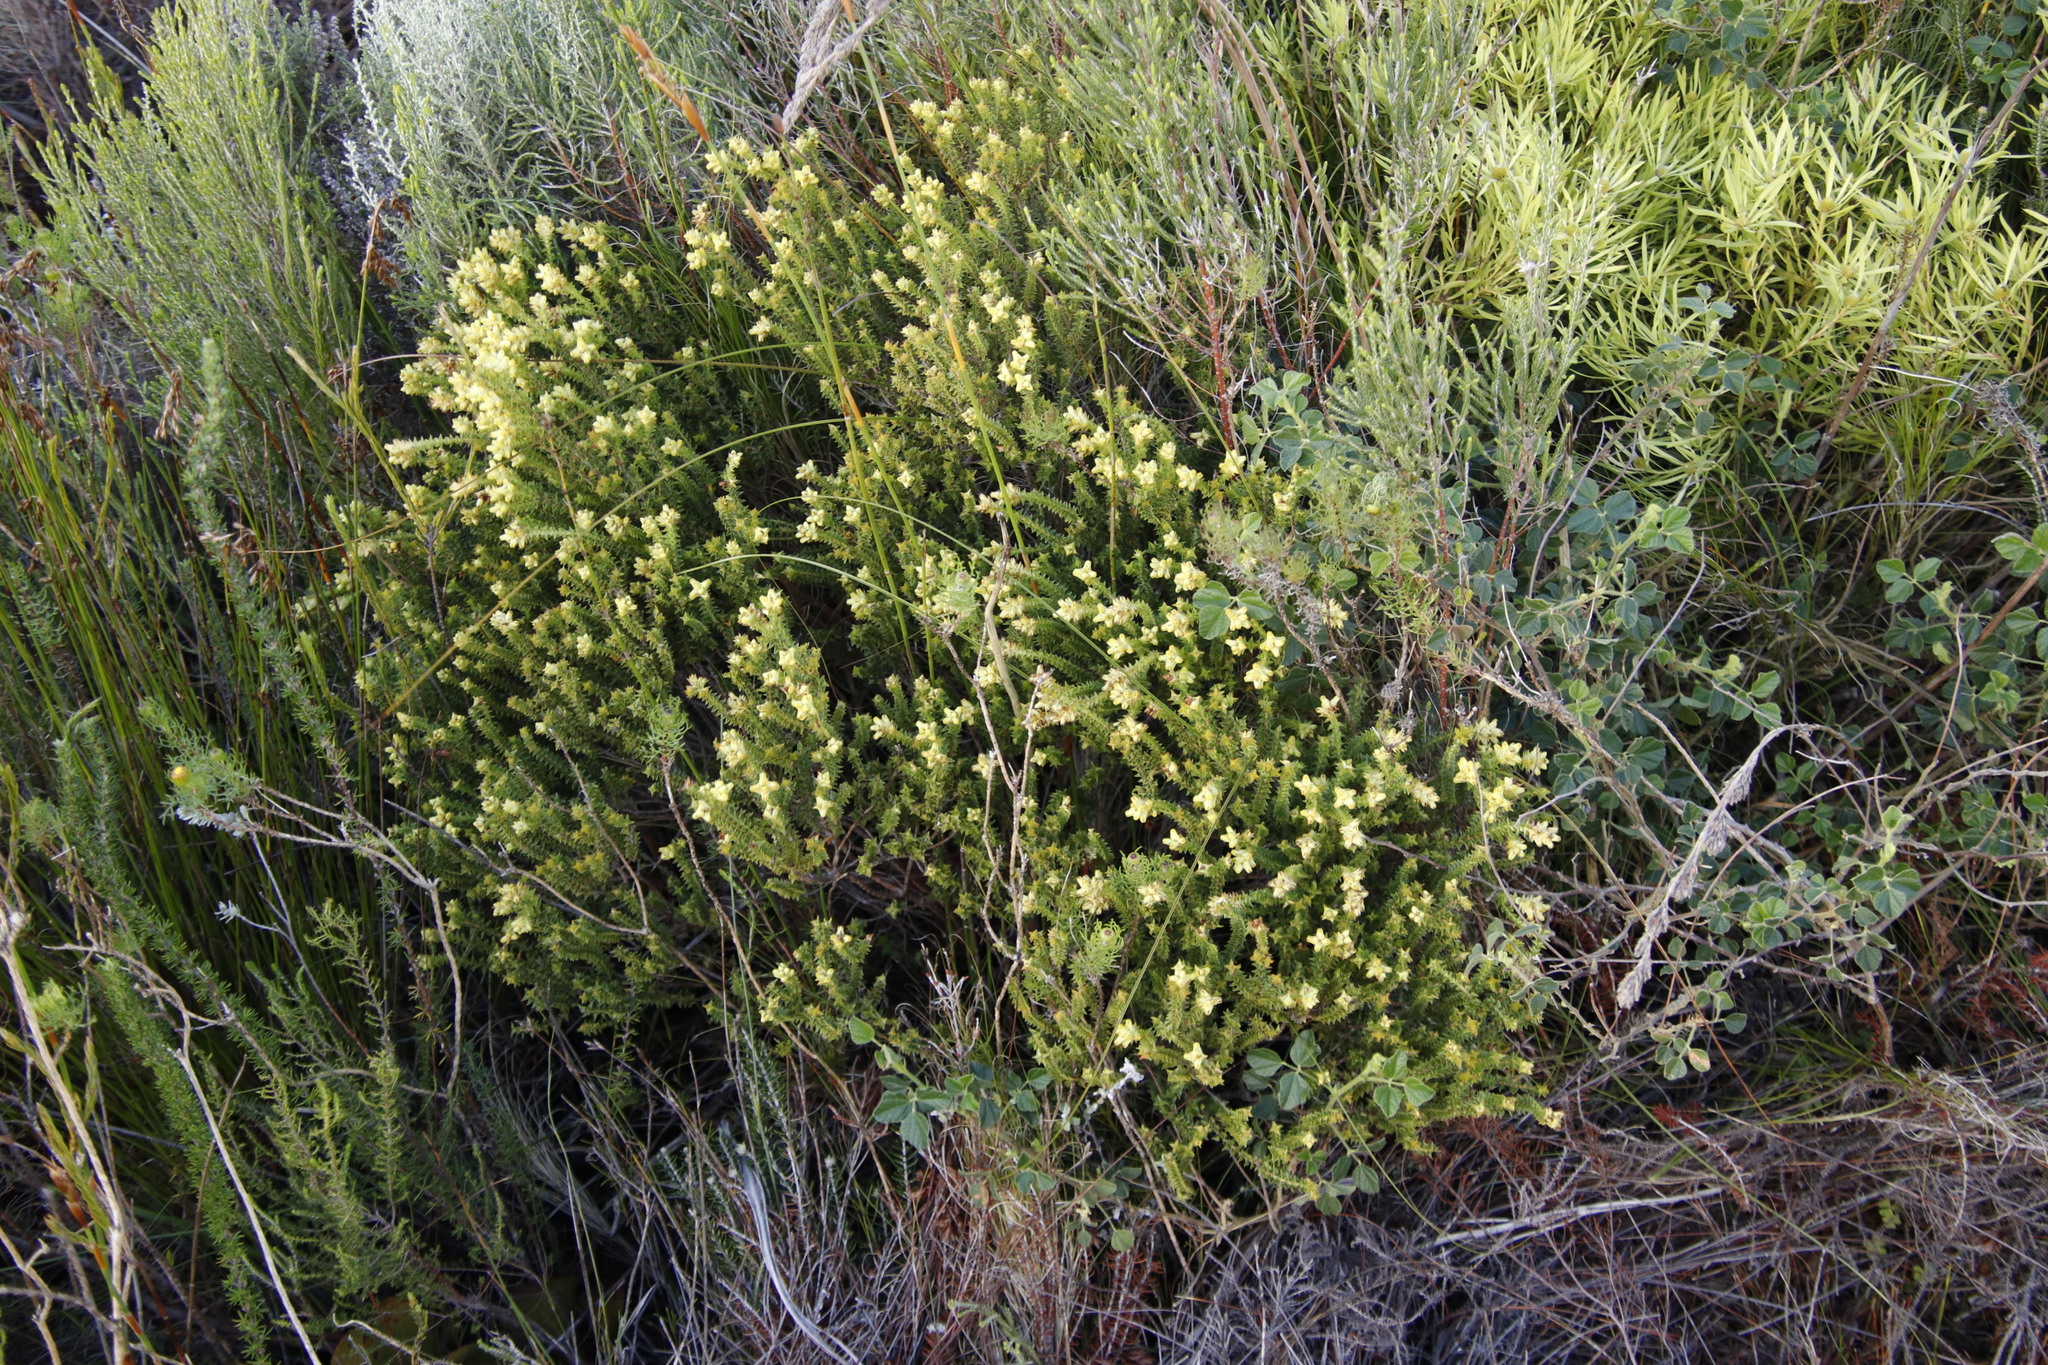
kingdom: Plantae
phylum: Tracheophyta
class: Magnoliopsida
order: Myrtales
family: Penaeaceae
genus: Penaea
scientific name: Penaea mucronata
